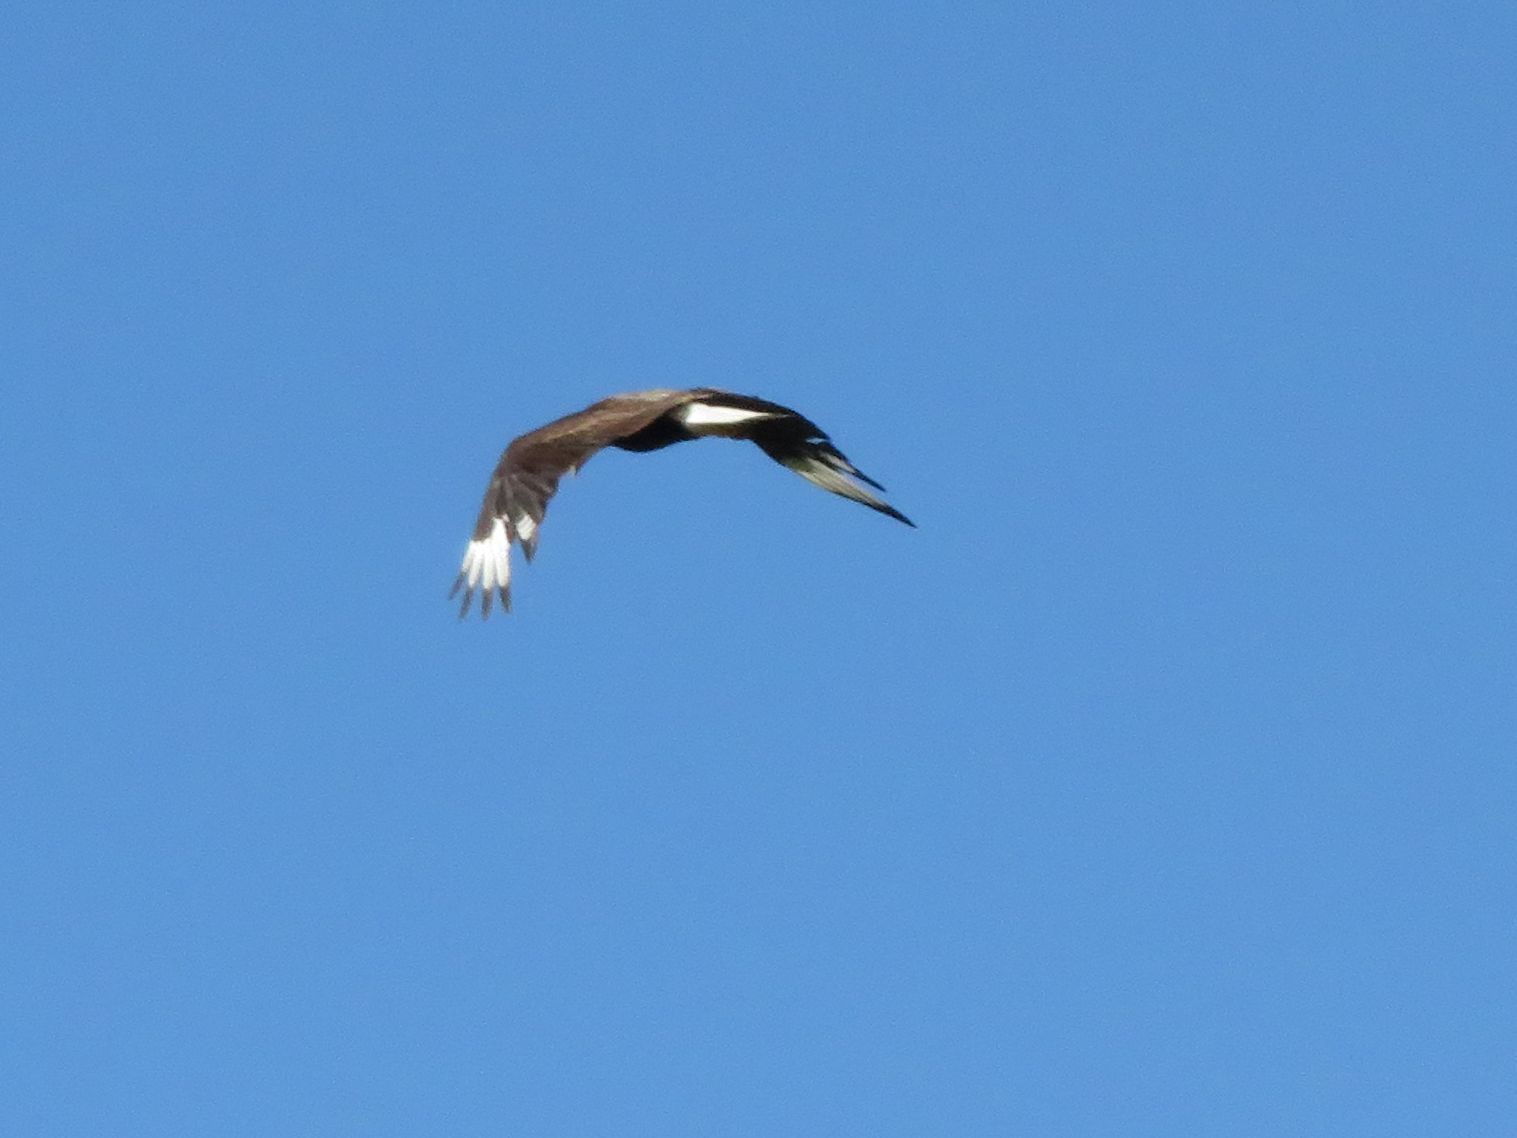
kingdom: Animalia
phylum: Chordata
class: Aves
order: Falconiformes
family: Falconidae
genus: Caracara
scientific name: Caracara plancus
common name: Southern caracara
